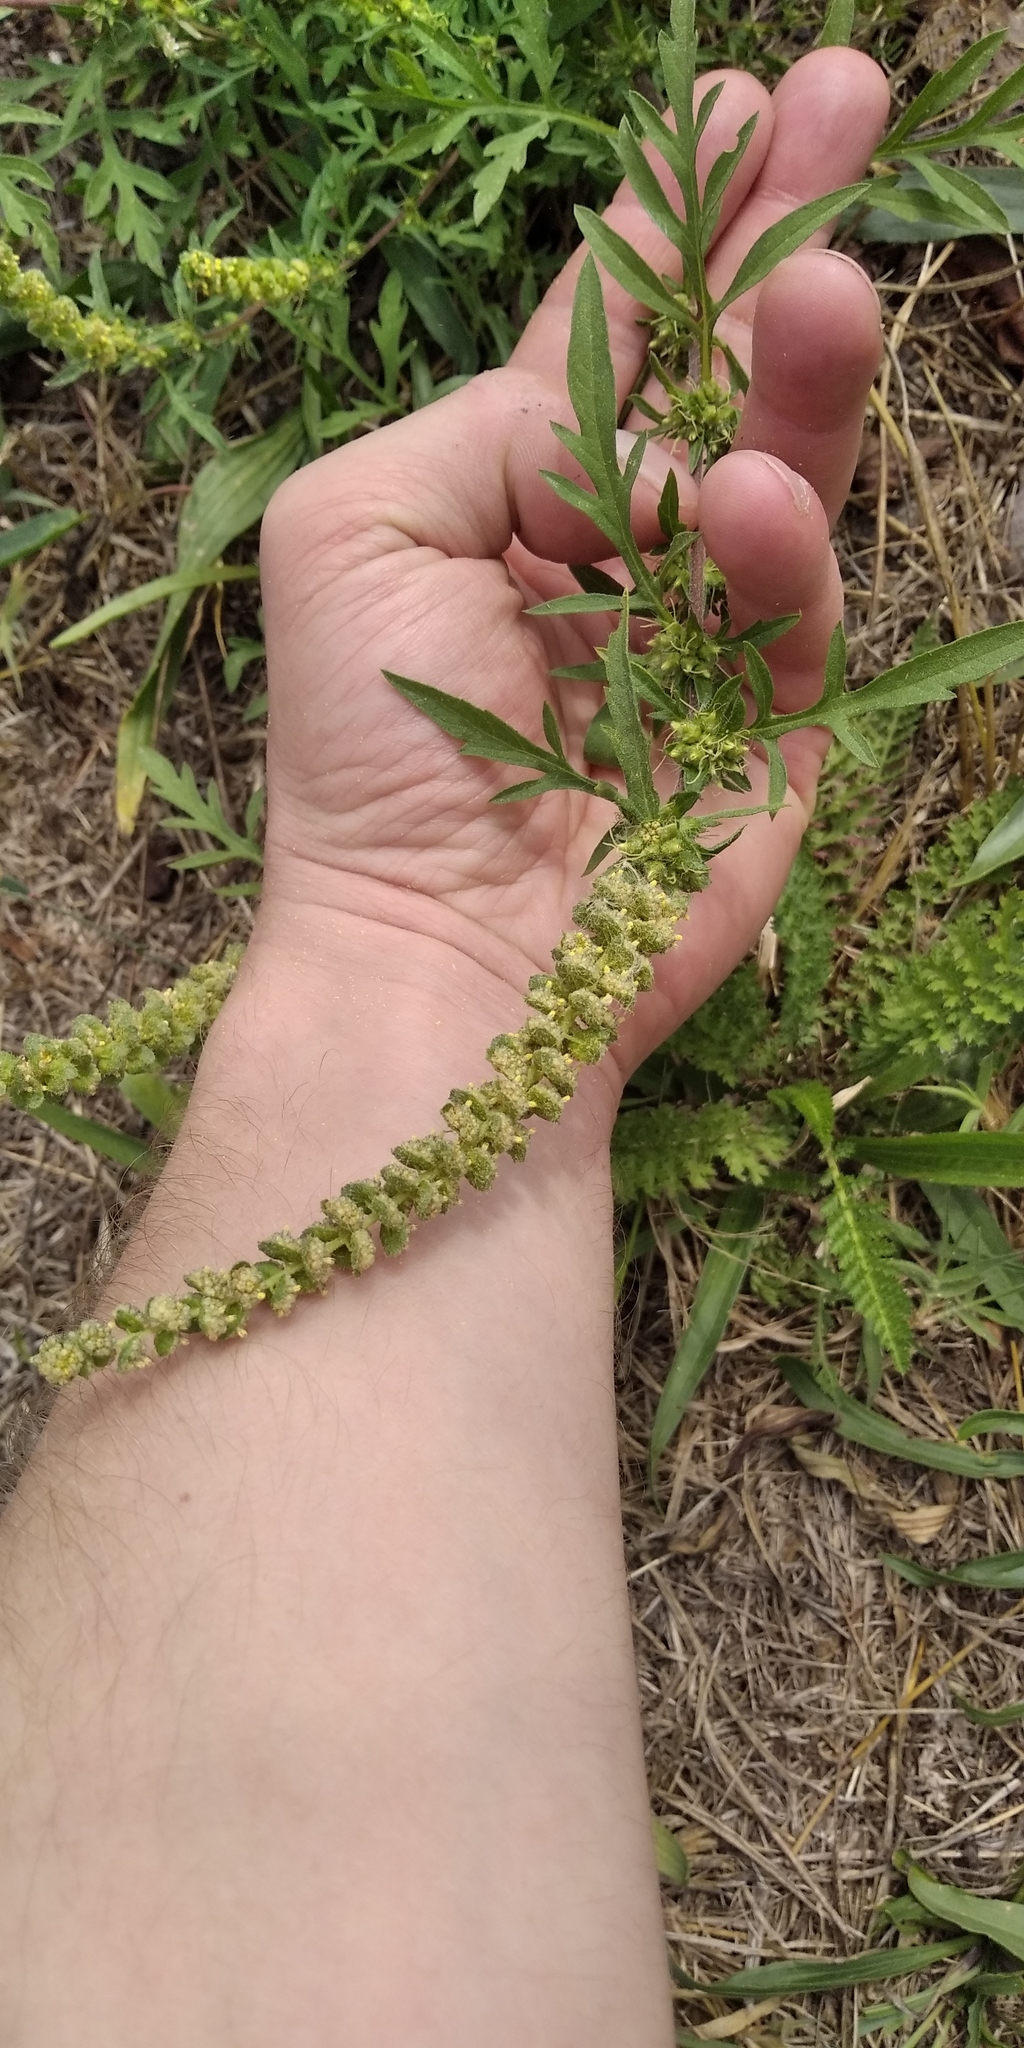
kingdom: Plantae
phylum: Tracheophyta
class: Magnoliopsida
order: Asterales
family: Asteraceae
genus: Ambrosia
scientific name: Ambrosia artemisiifolia
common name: Annual ragweed
